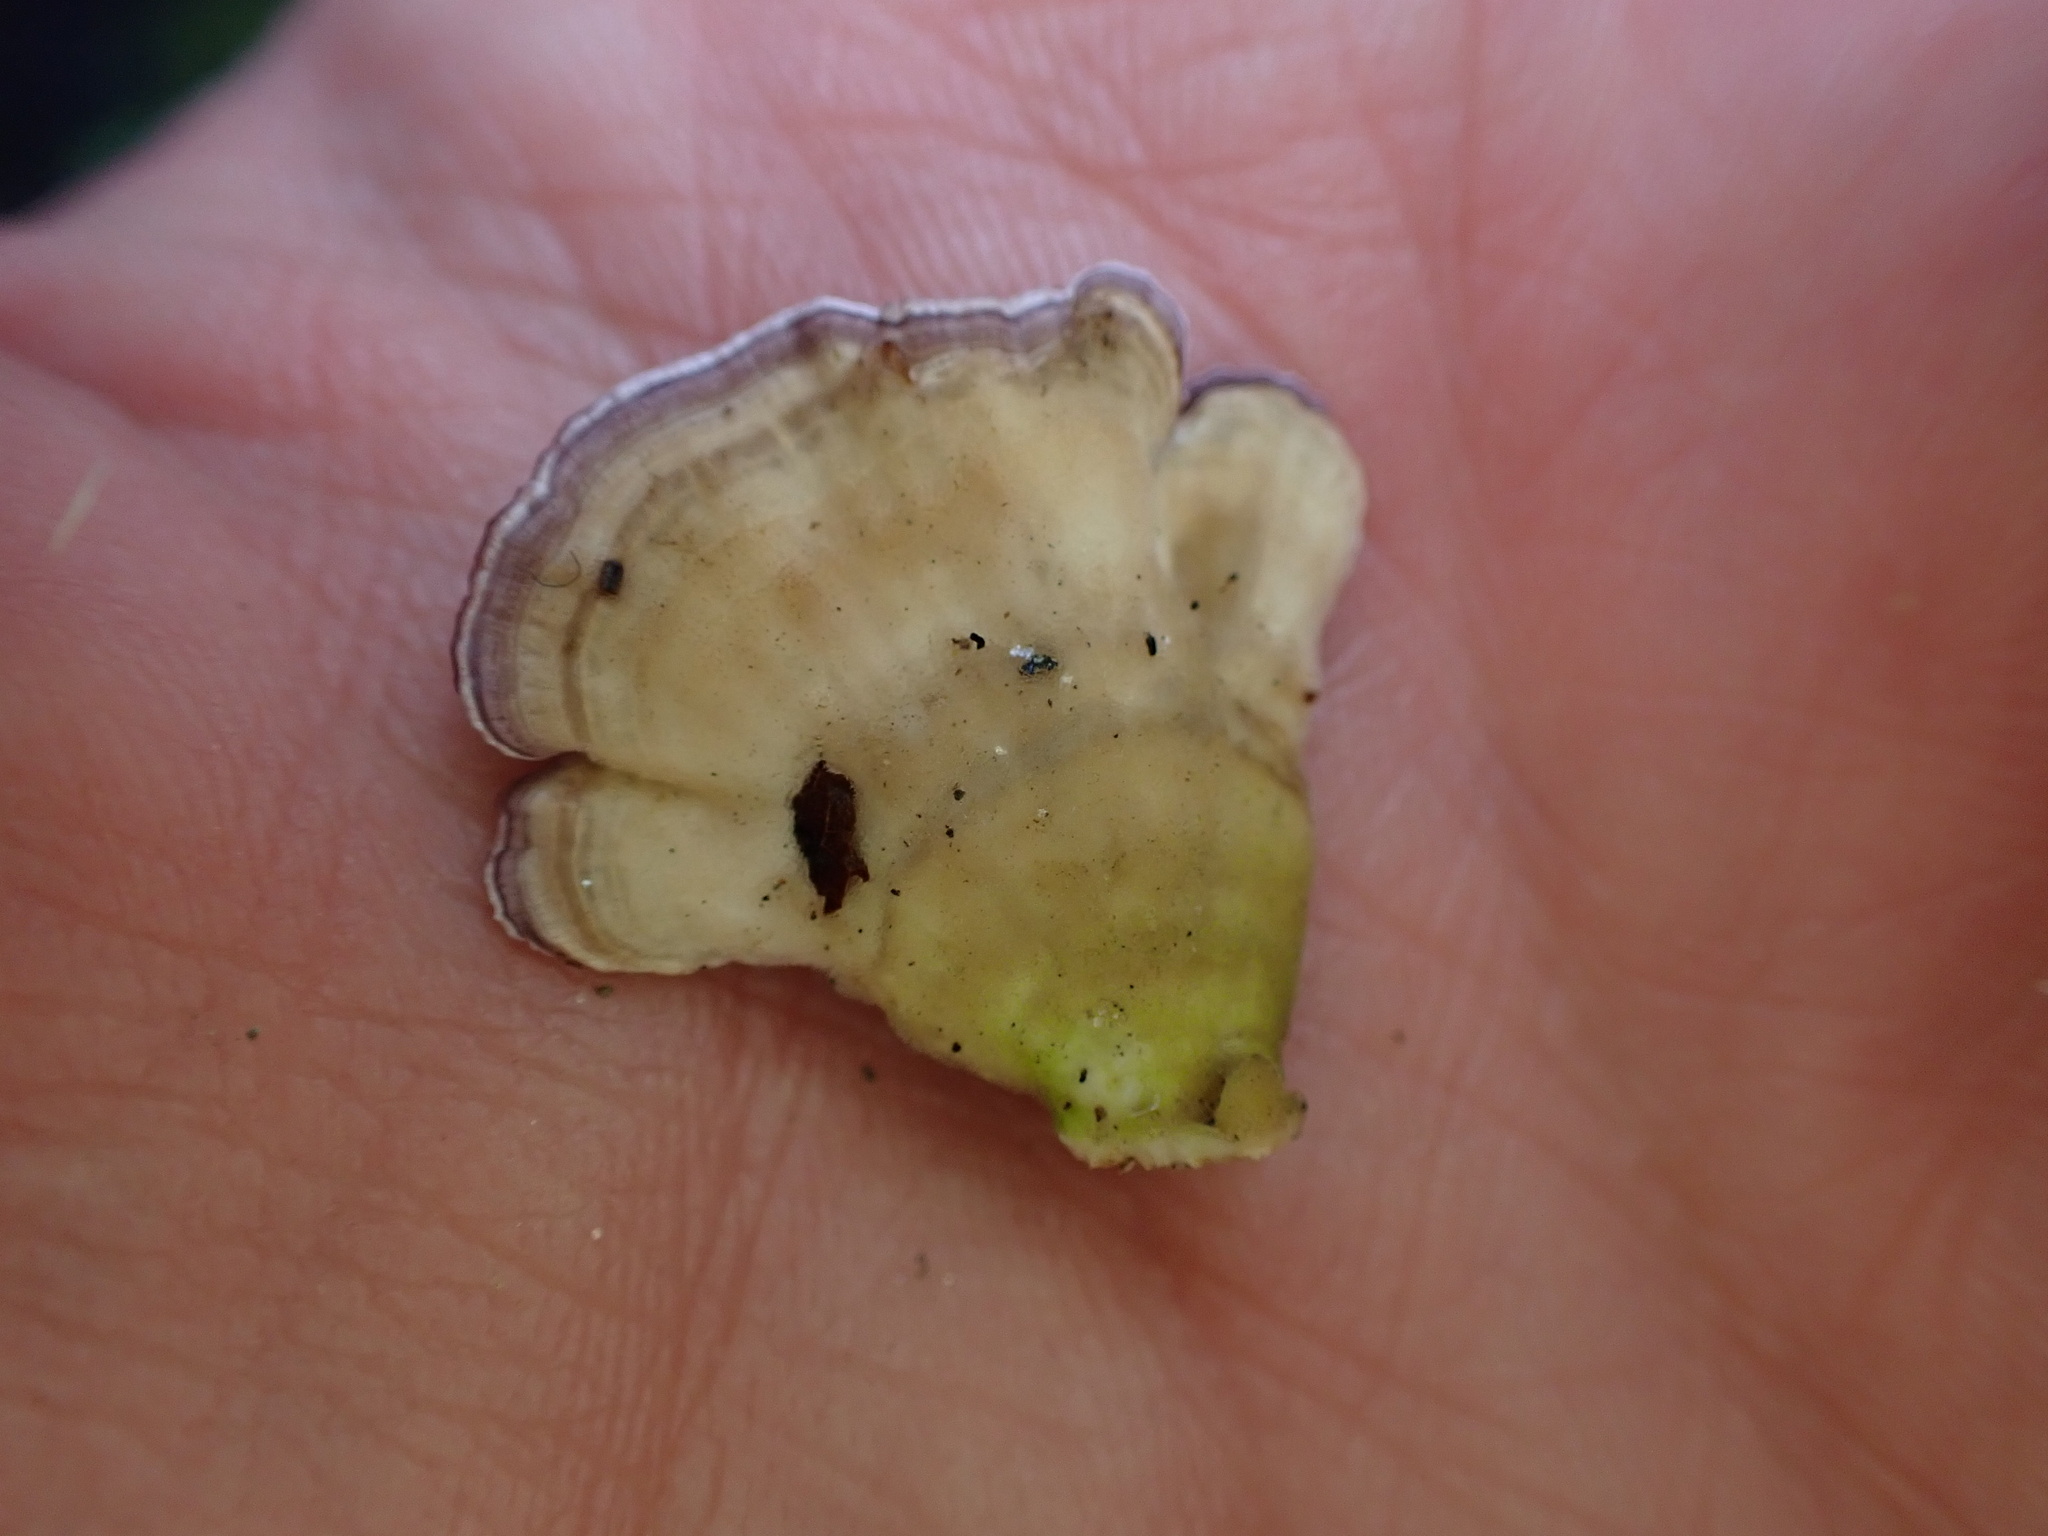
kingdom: Fungi
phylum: Basidiomycota
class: Agaricomycetes
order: Hymenochaetales
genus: Trichaptum
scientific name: Trichaptum biforme
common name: Violet-toothed polypore
